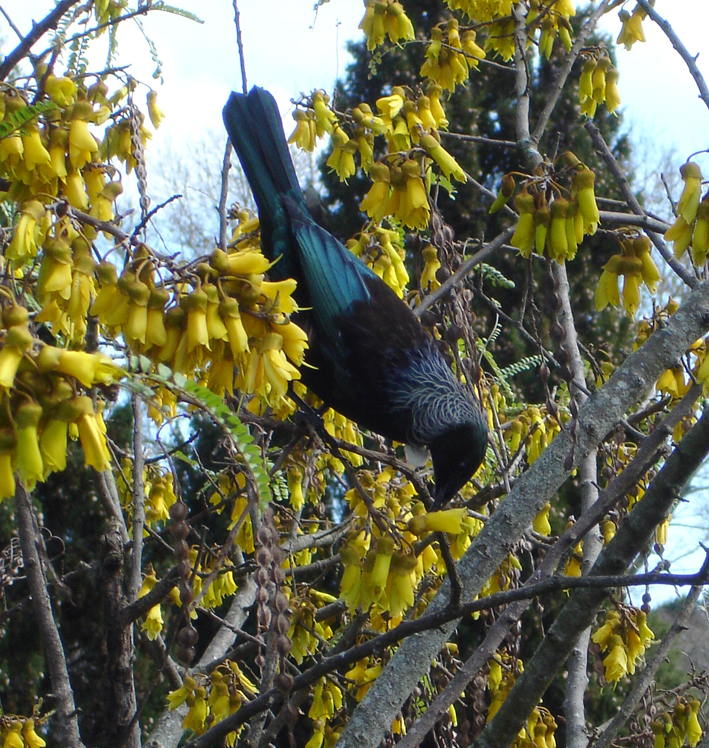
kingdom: Animalia
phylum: Chordata
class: Aves
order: Passeriformes
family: Meliphagidae
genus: Prosthemadera
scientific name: Prosthemadera novaeseelandiae
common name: Tui
